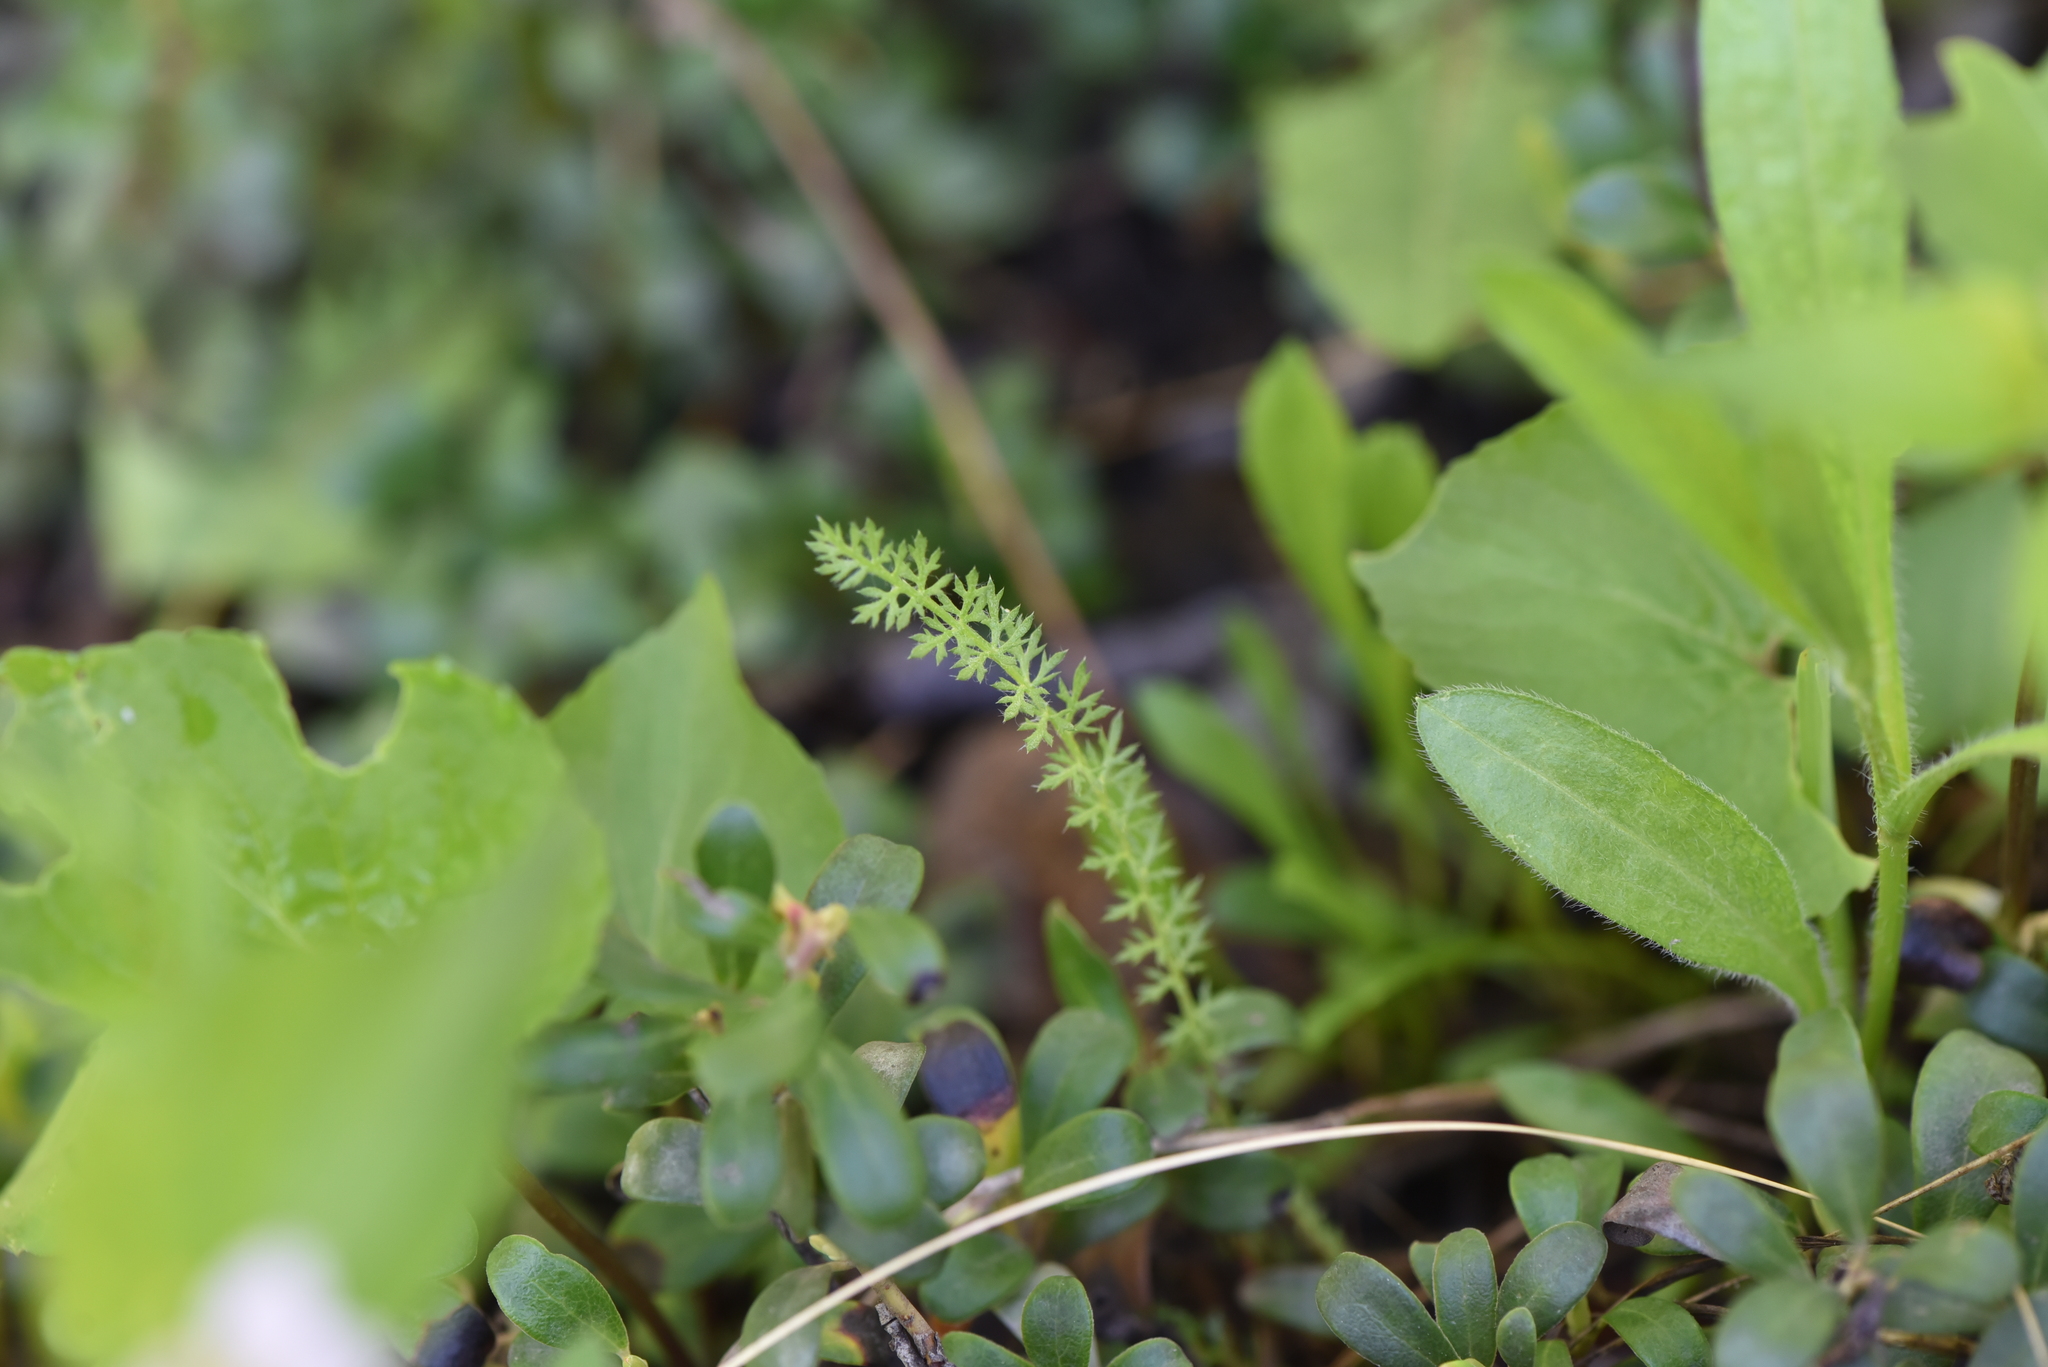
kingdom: Plantae
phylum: Tracheophyta
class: Magnoliopsida
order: Asterales
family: Asteraceae
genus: Achillea
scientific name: Achillea millefolium
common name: Yarrow
